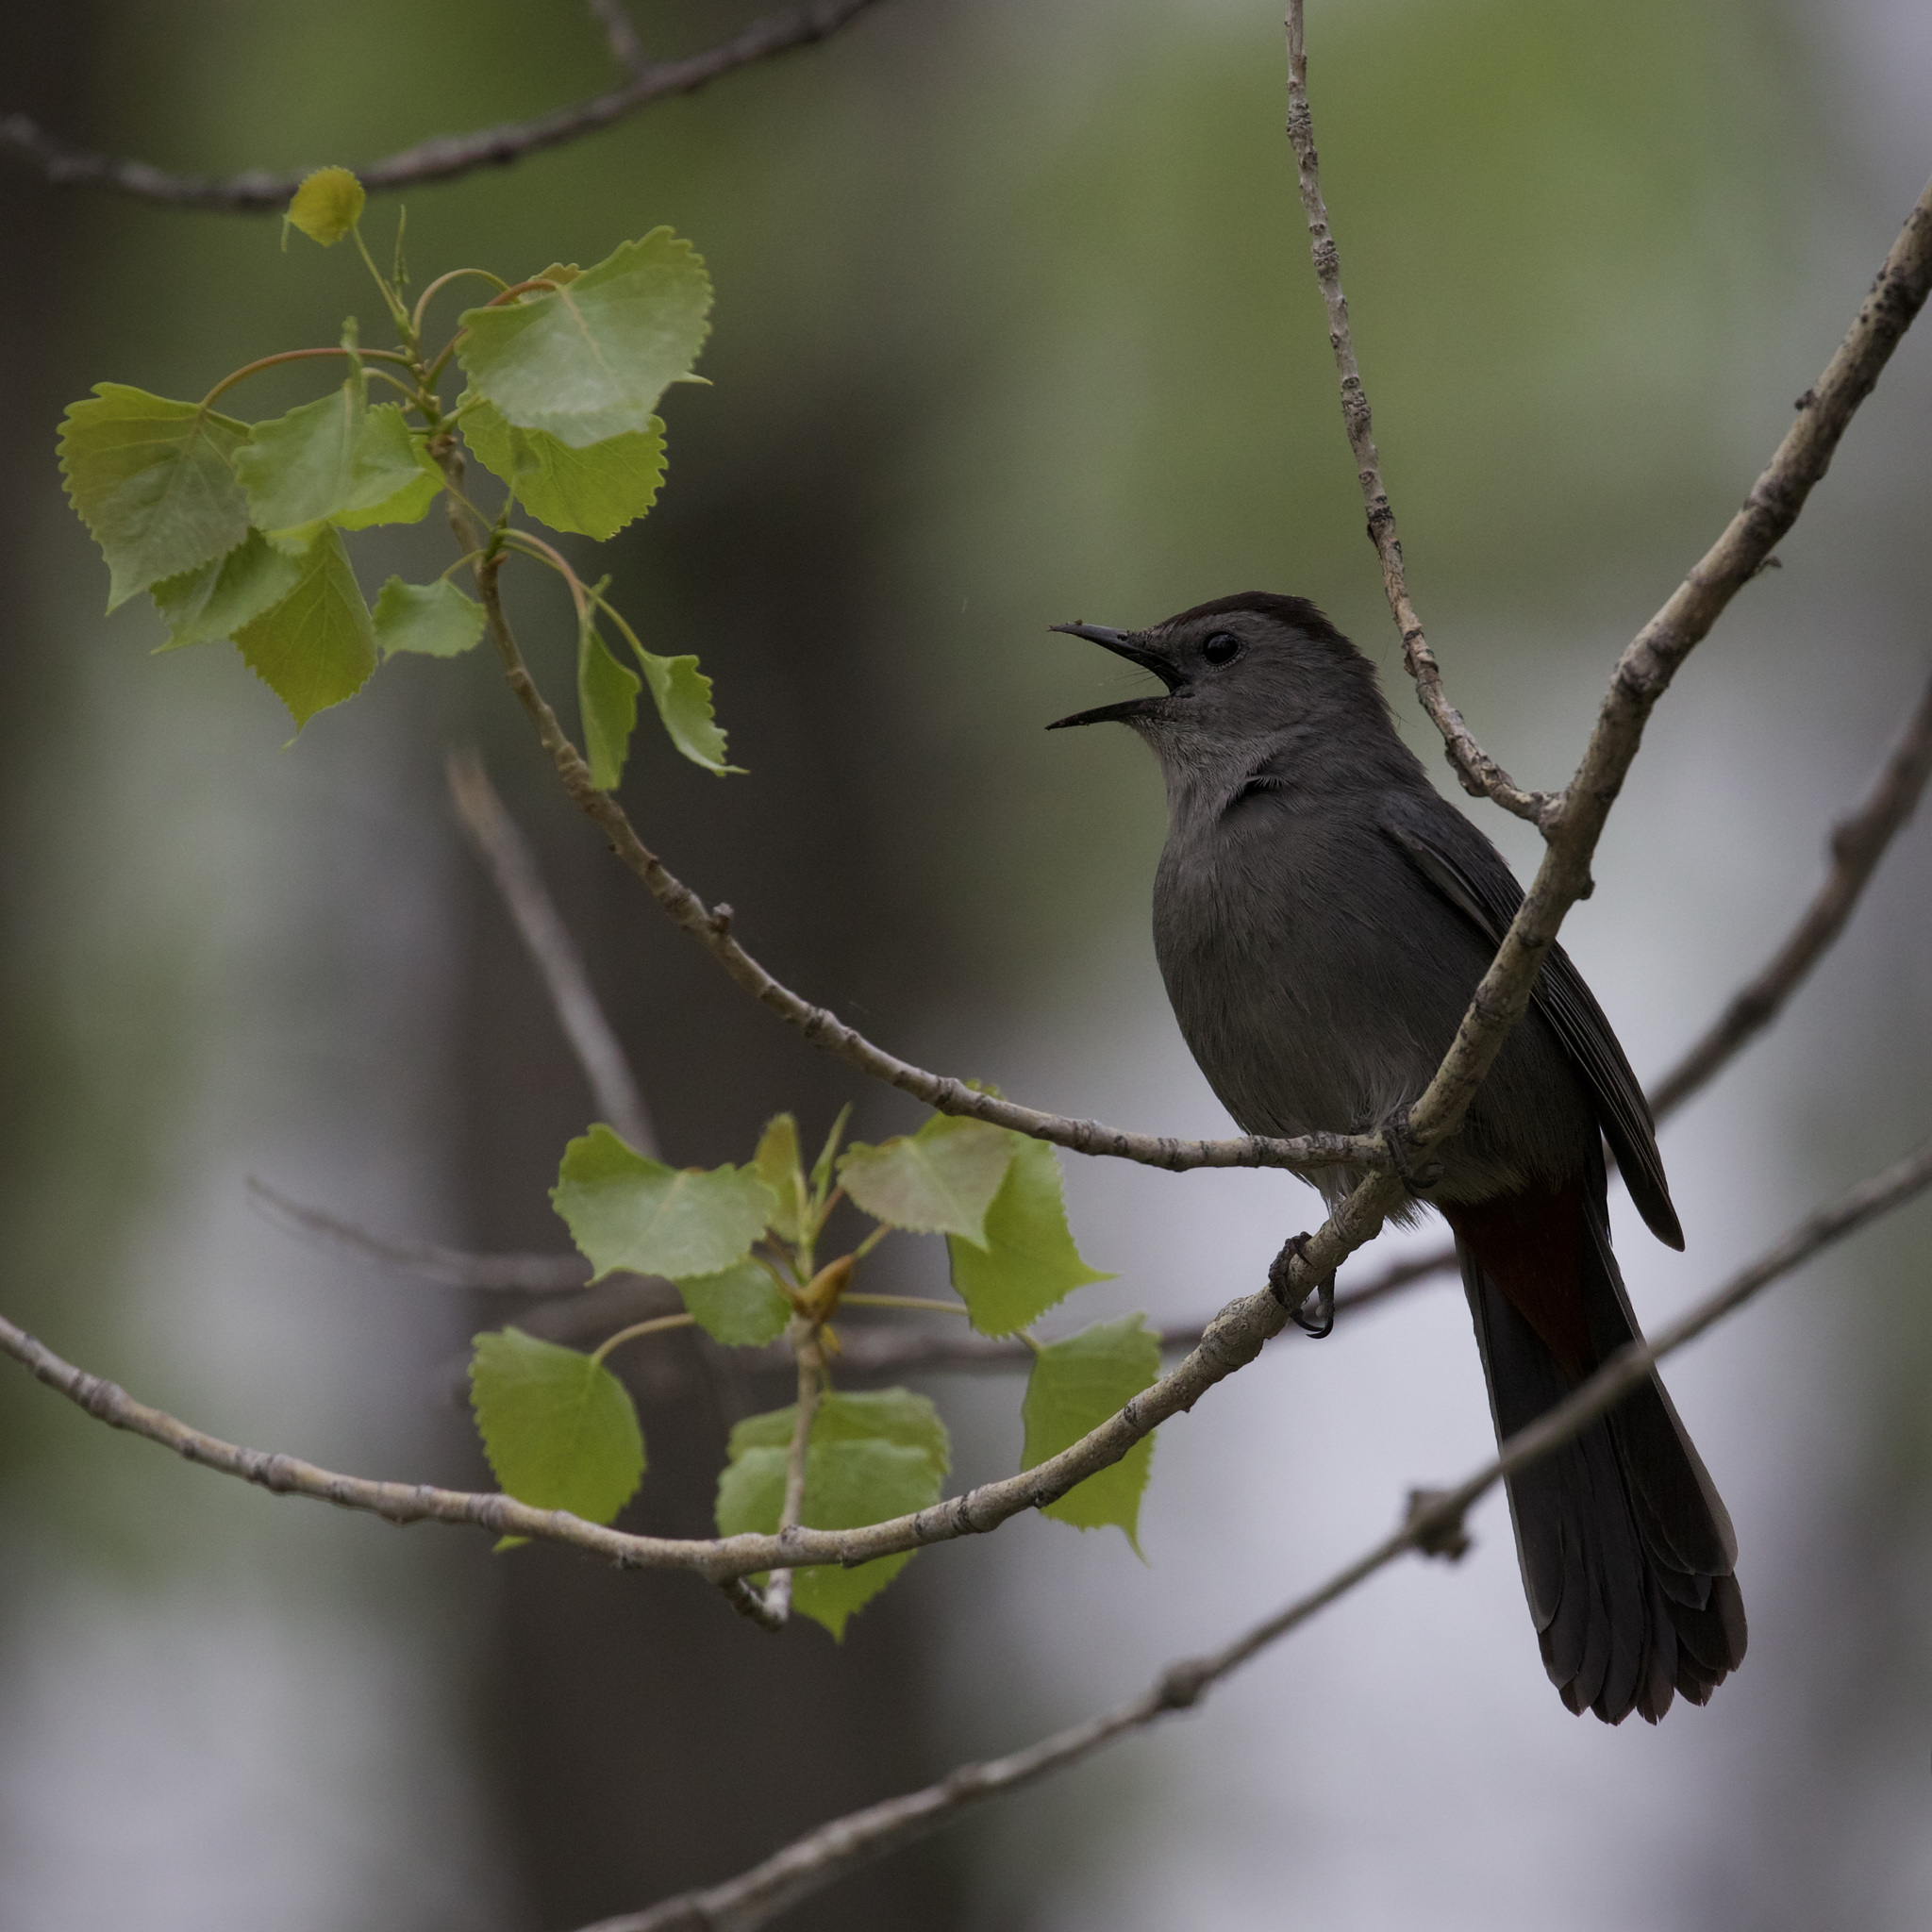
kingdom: Animalia
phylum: Chordata
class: Aves
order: Passeriformes
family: Mimidae
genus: Dumetella
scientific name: Dumetella carolinensis
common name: Gray catbird
